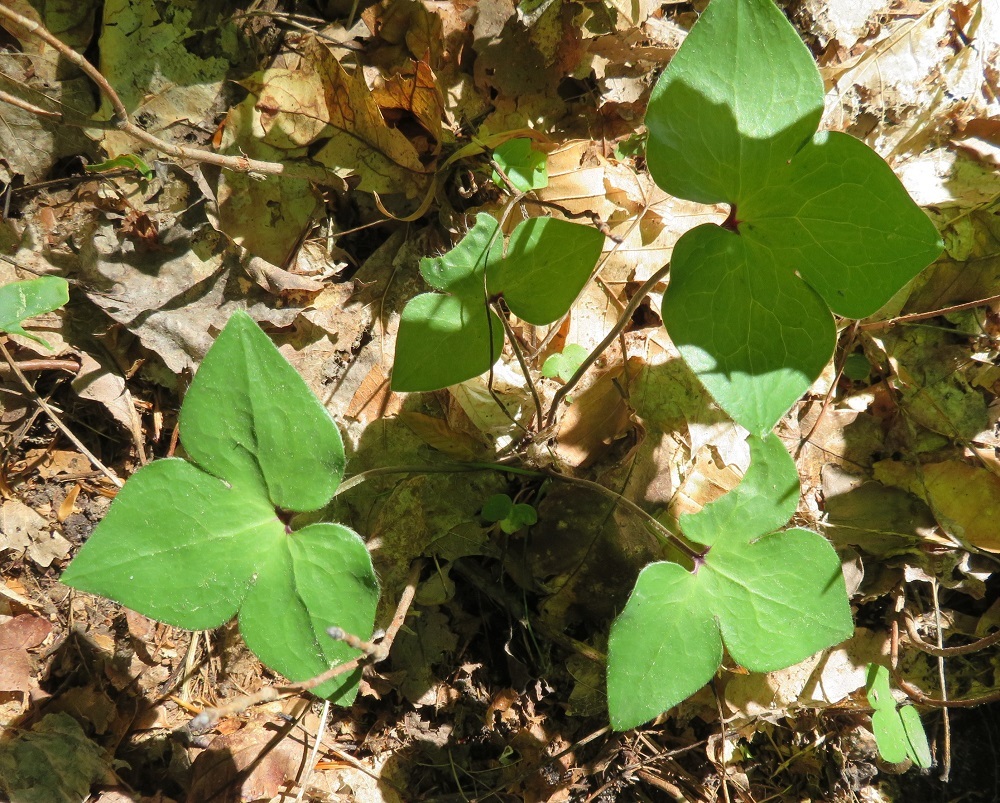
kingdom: Plantae
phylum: Tracheophyta
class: Magnoliopsida
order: Ranunculales
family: Ranunculaceae
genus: Hepatica
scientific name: Hepatica acutiloba
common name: Sharp-lobed hepatica
